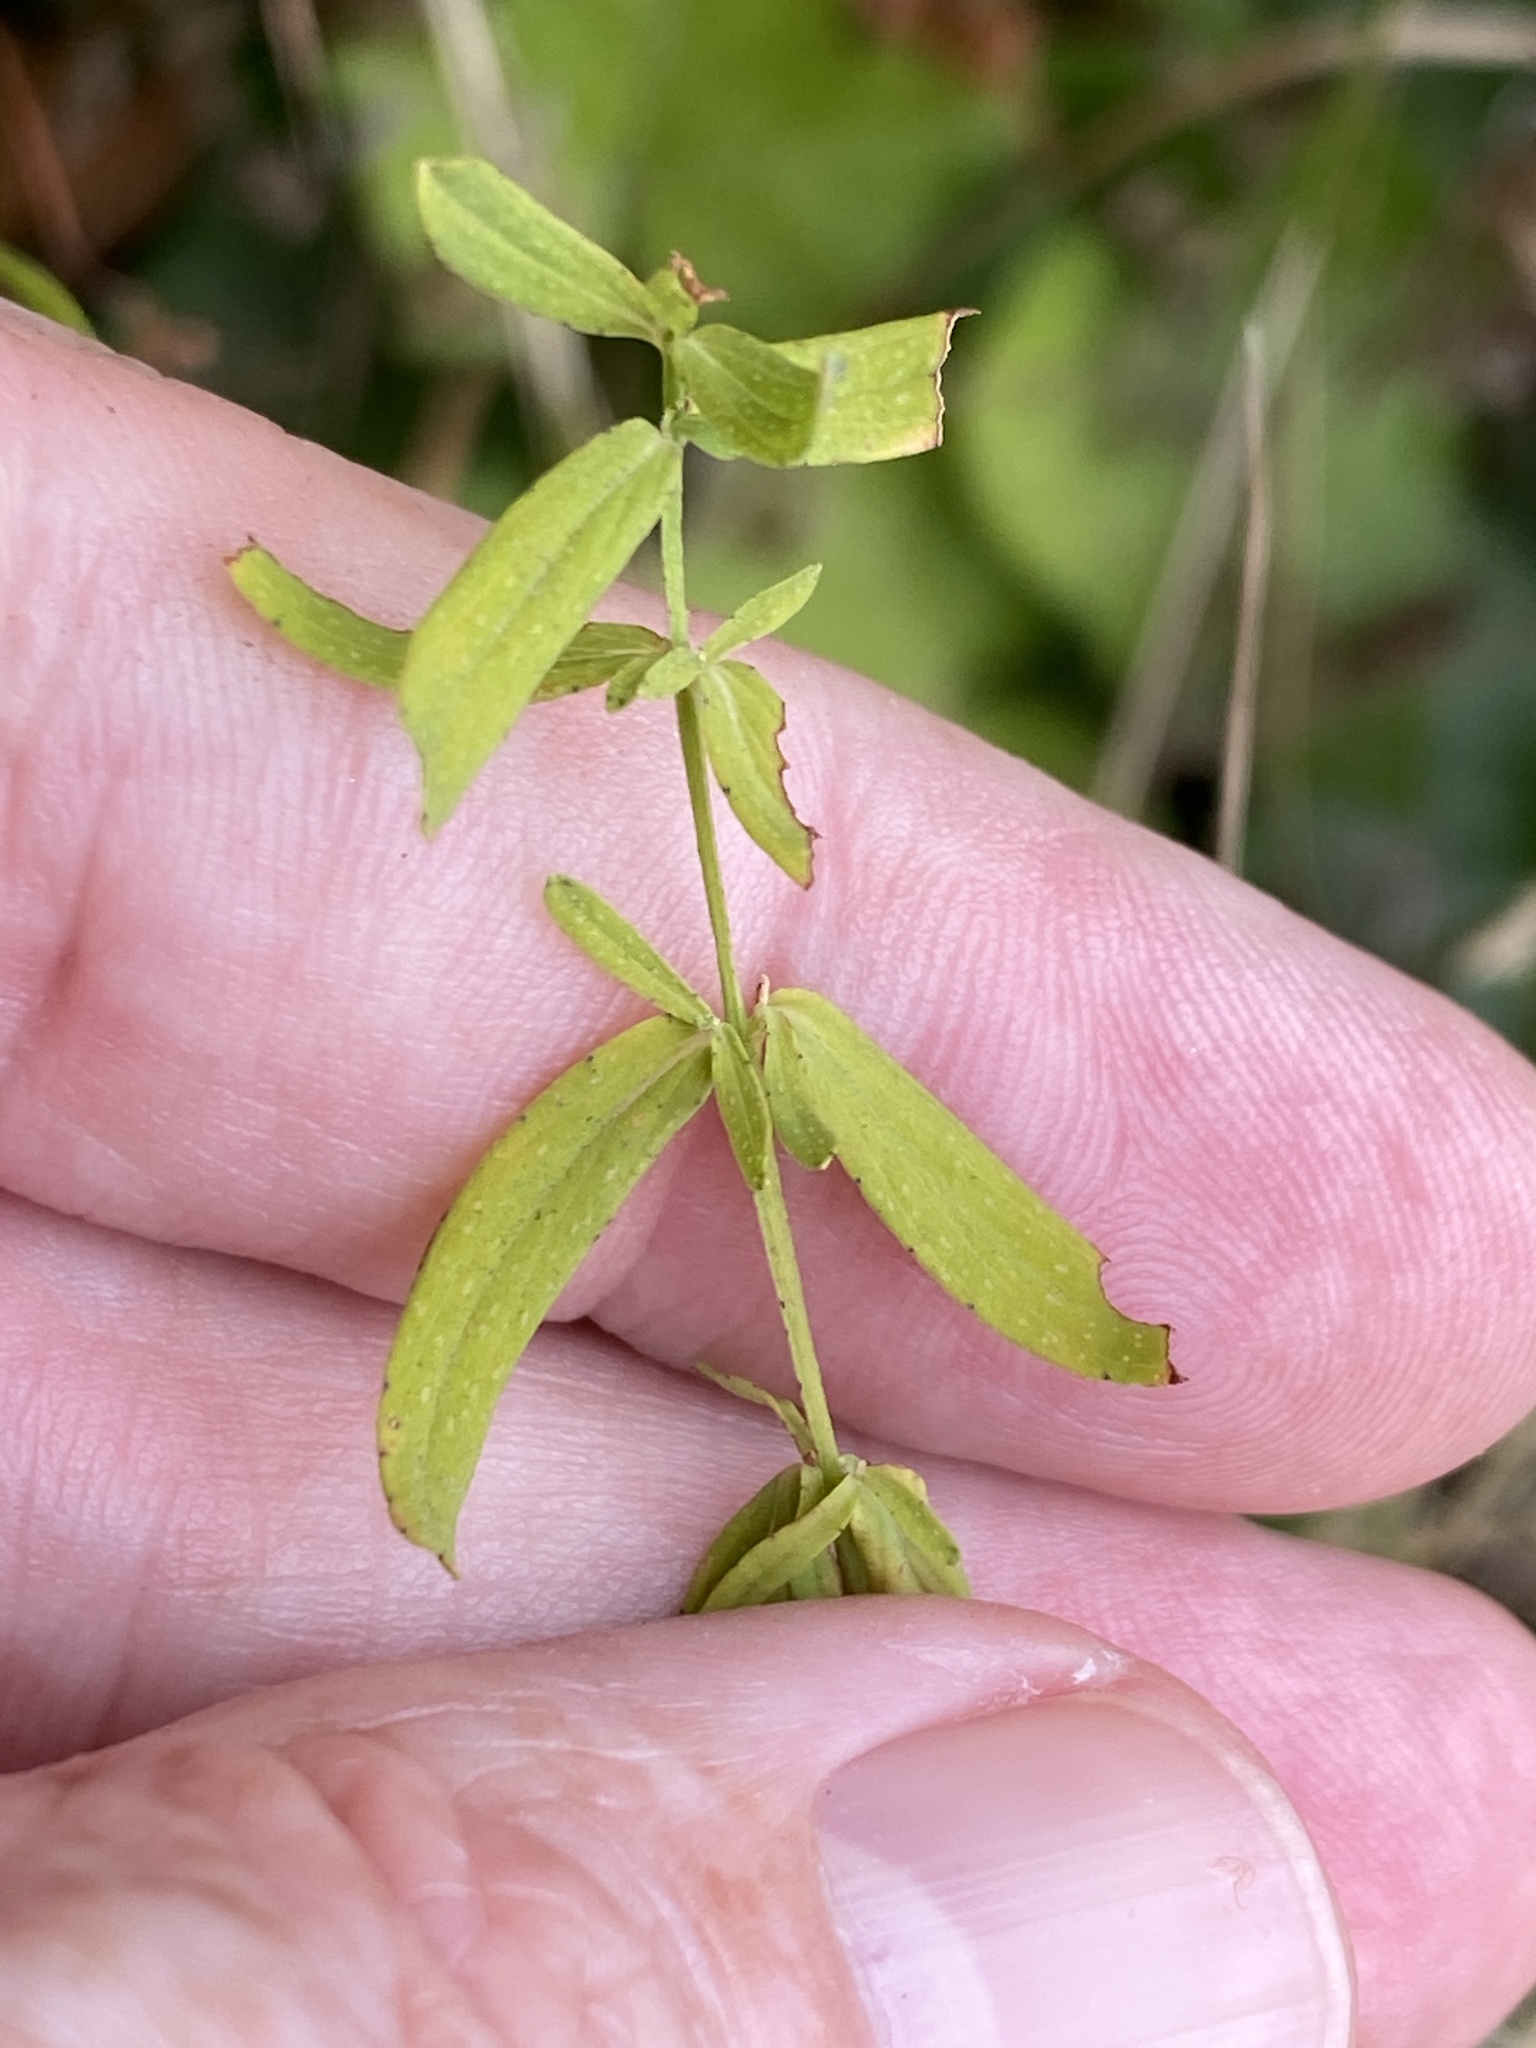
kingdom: Plantae
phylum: Tracheophyta
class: Magnoliopsida
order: Malpighiales
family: Hypericaceae
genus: Hypericum
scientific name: Hypericum perforatum
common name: Common st. johnswort
